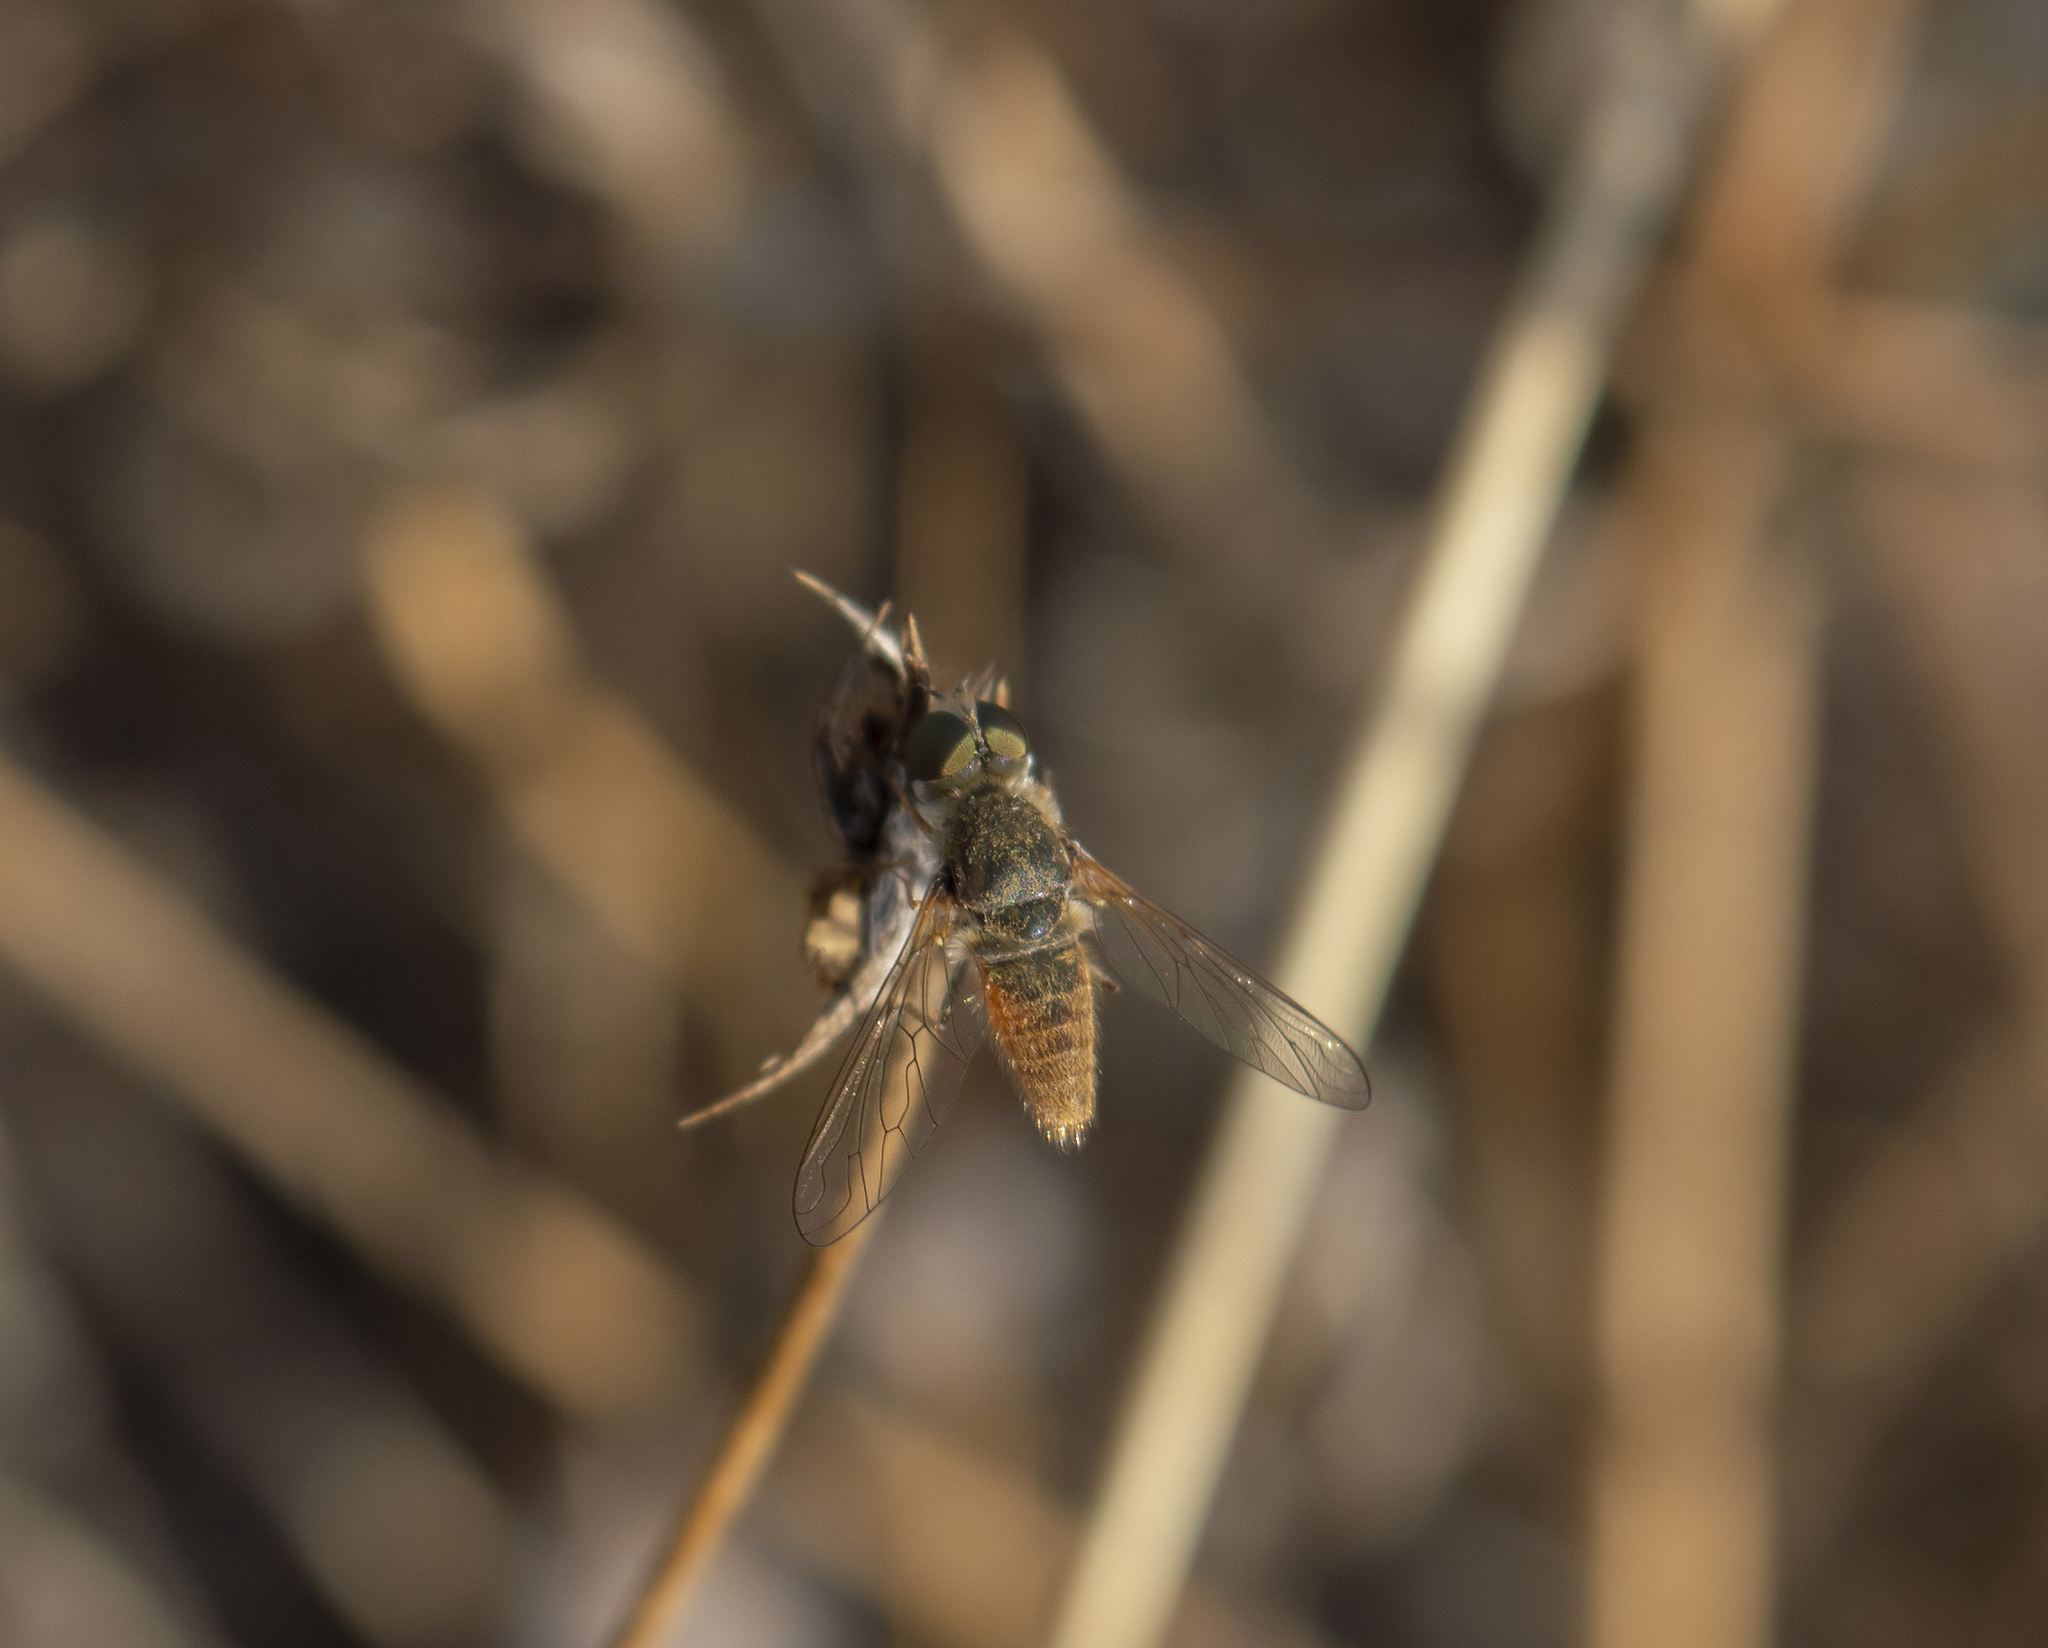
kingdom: Animalia
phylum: Arthropoda
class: Insecta
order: Diptera
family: Bombyliidae
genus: Petrorossia
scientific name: Petrorossia
